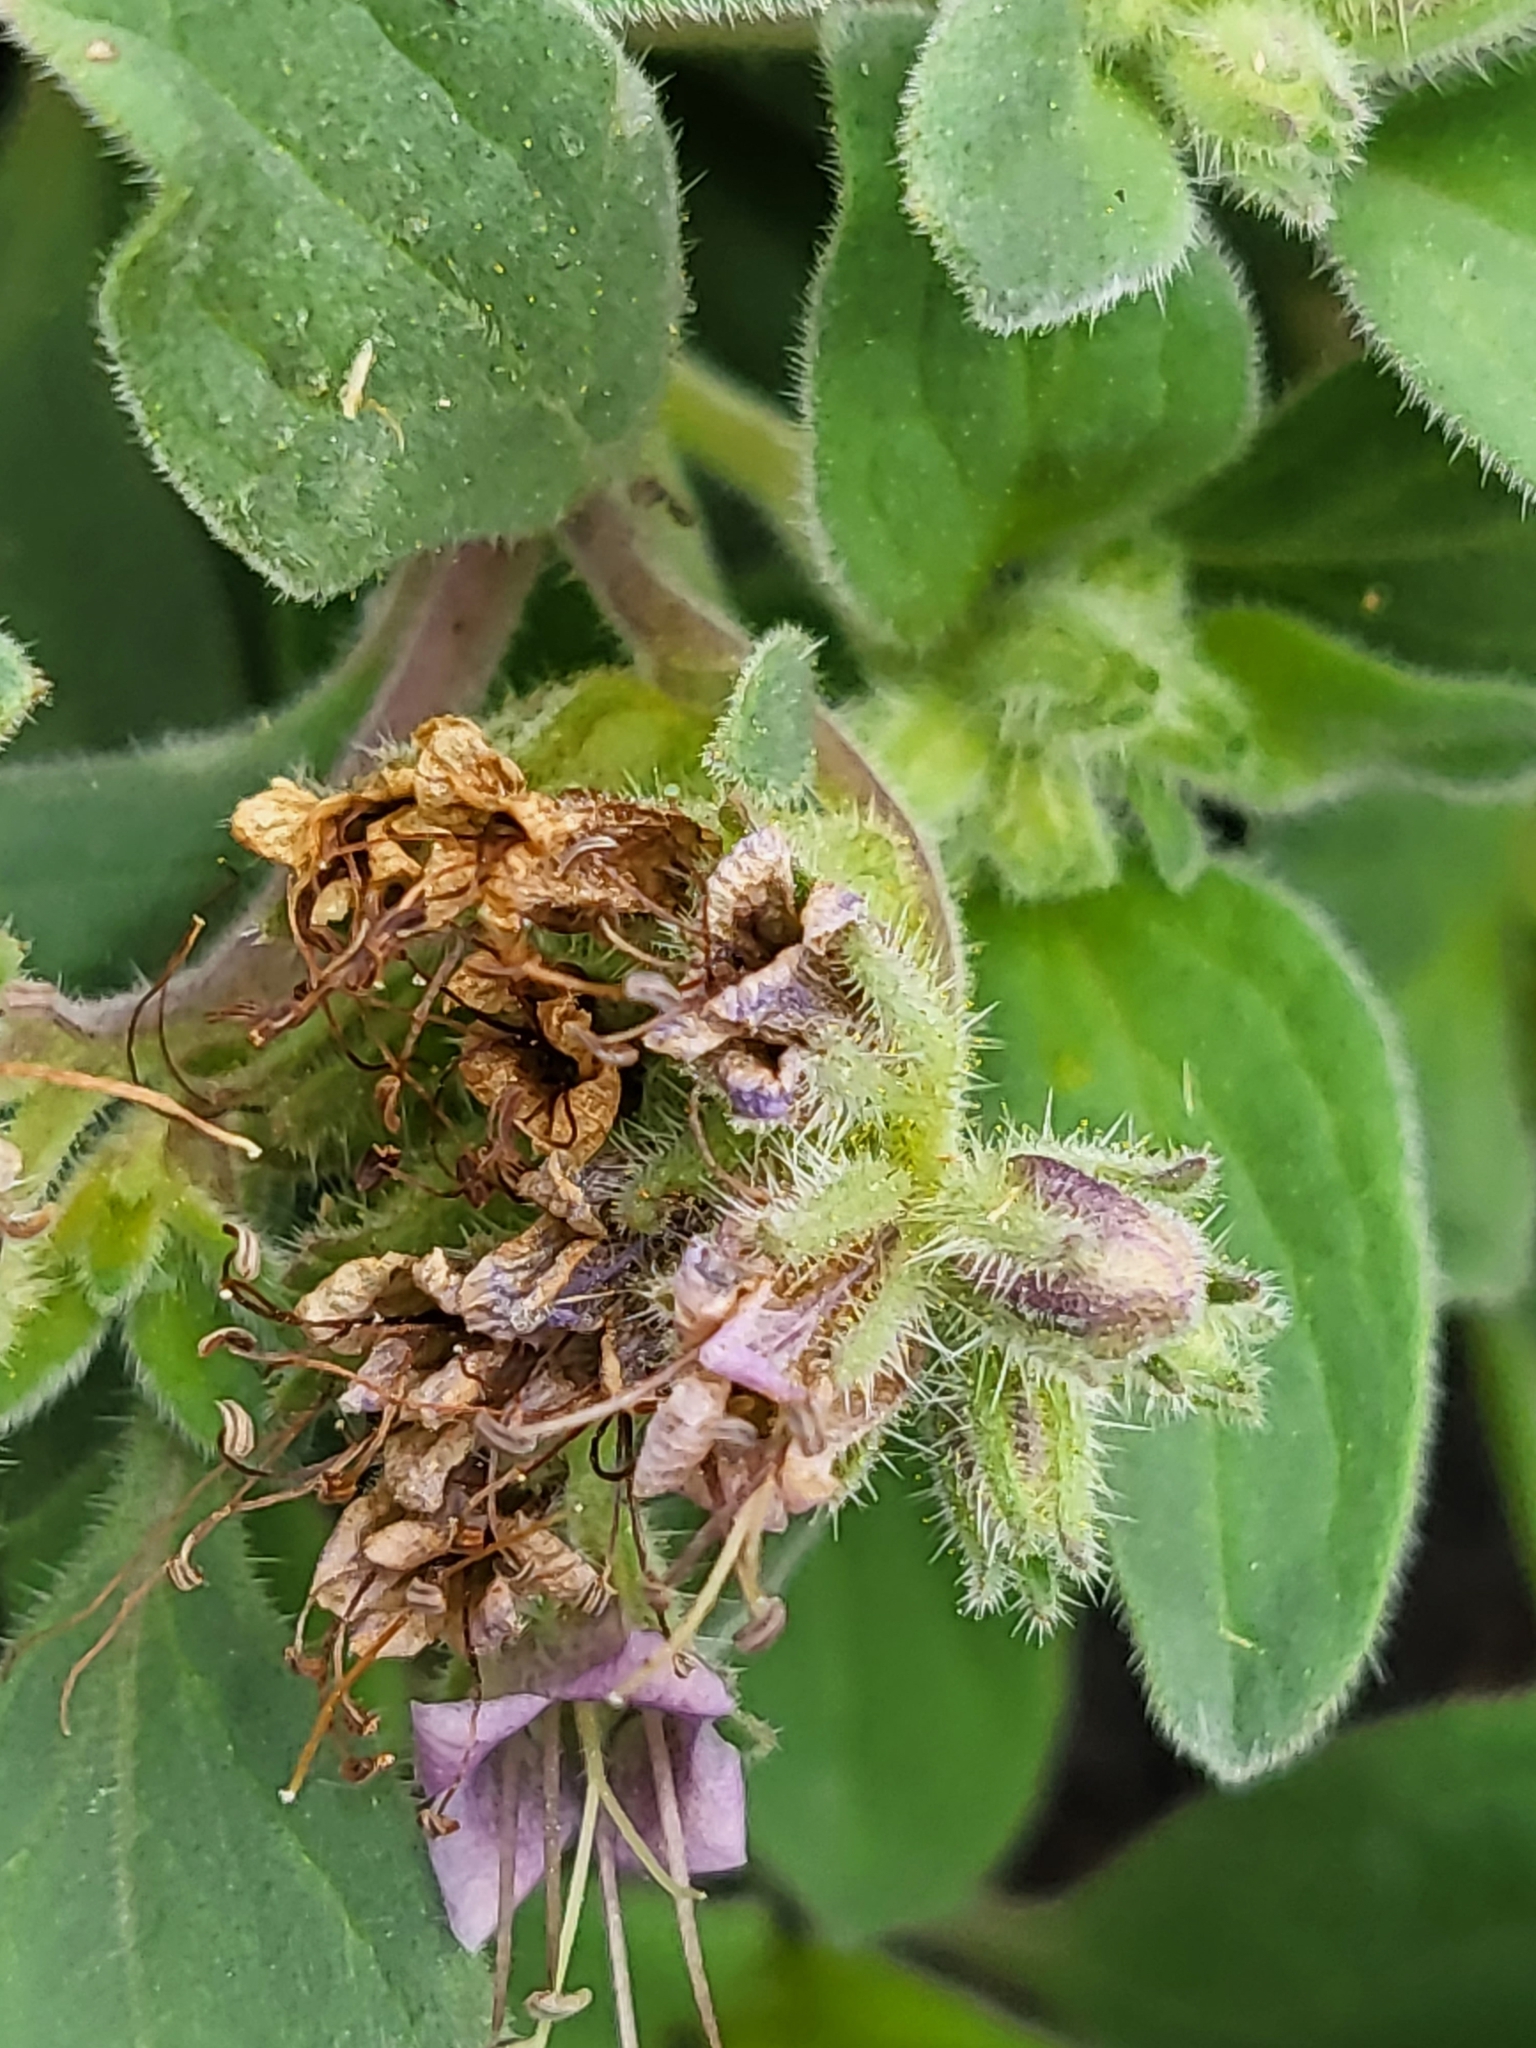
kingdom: Plantae
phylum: Tracheophyta
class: Magnoliopsida
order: Boraginales
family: Hydrophyllaceae
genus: Phacelia
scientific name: Phacelia hydrophylloides
